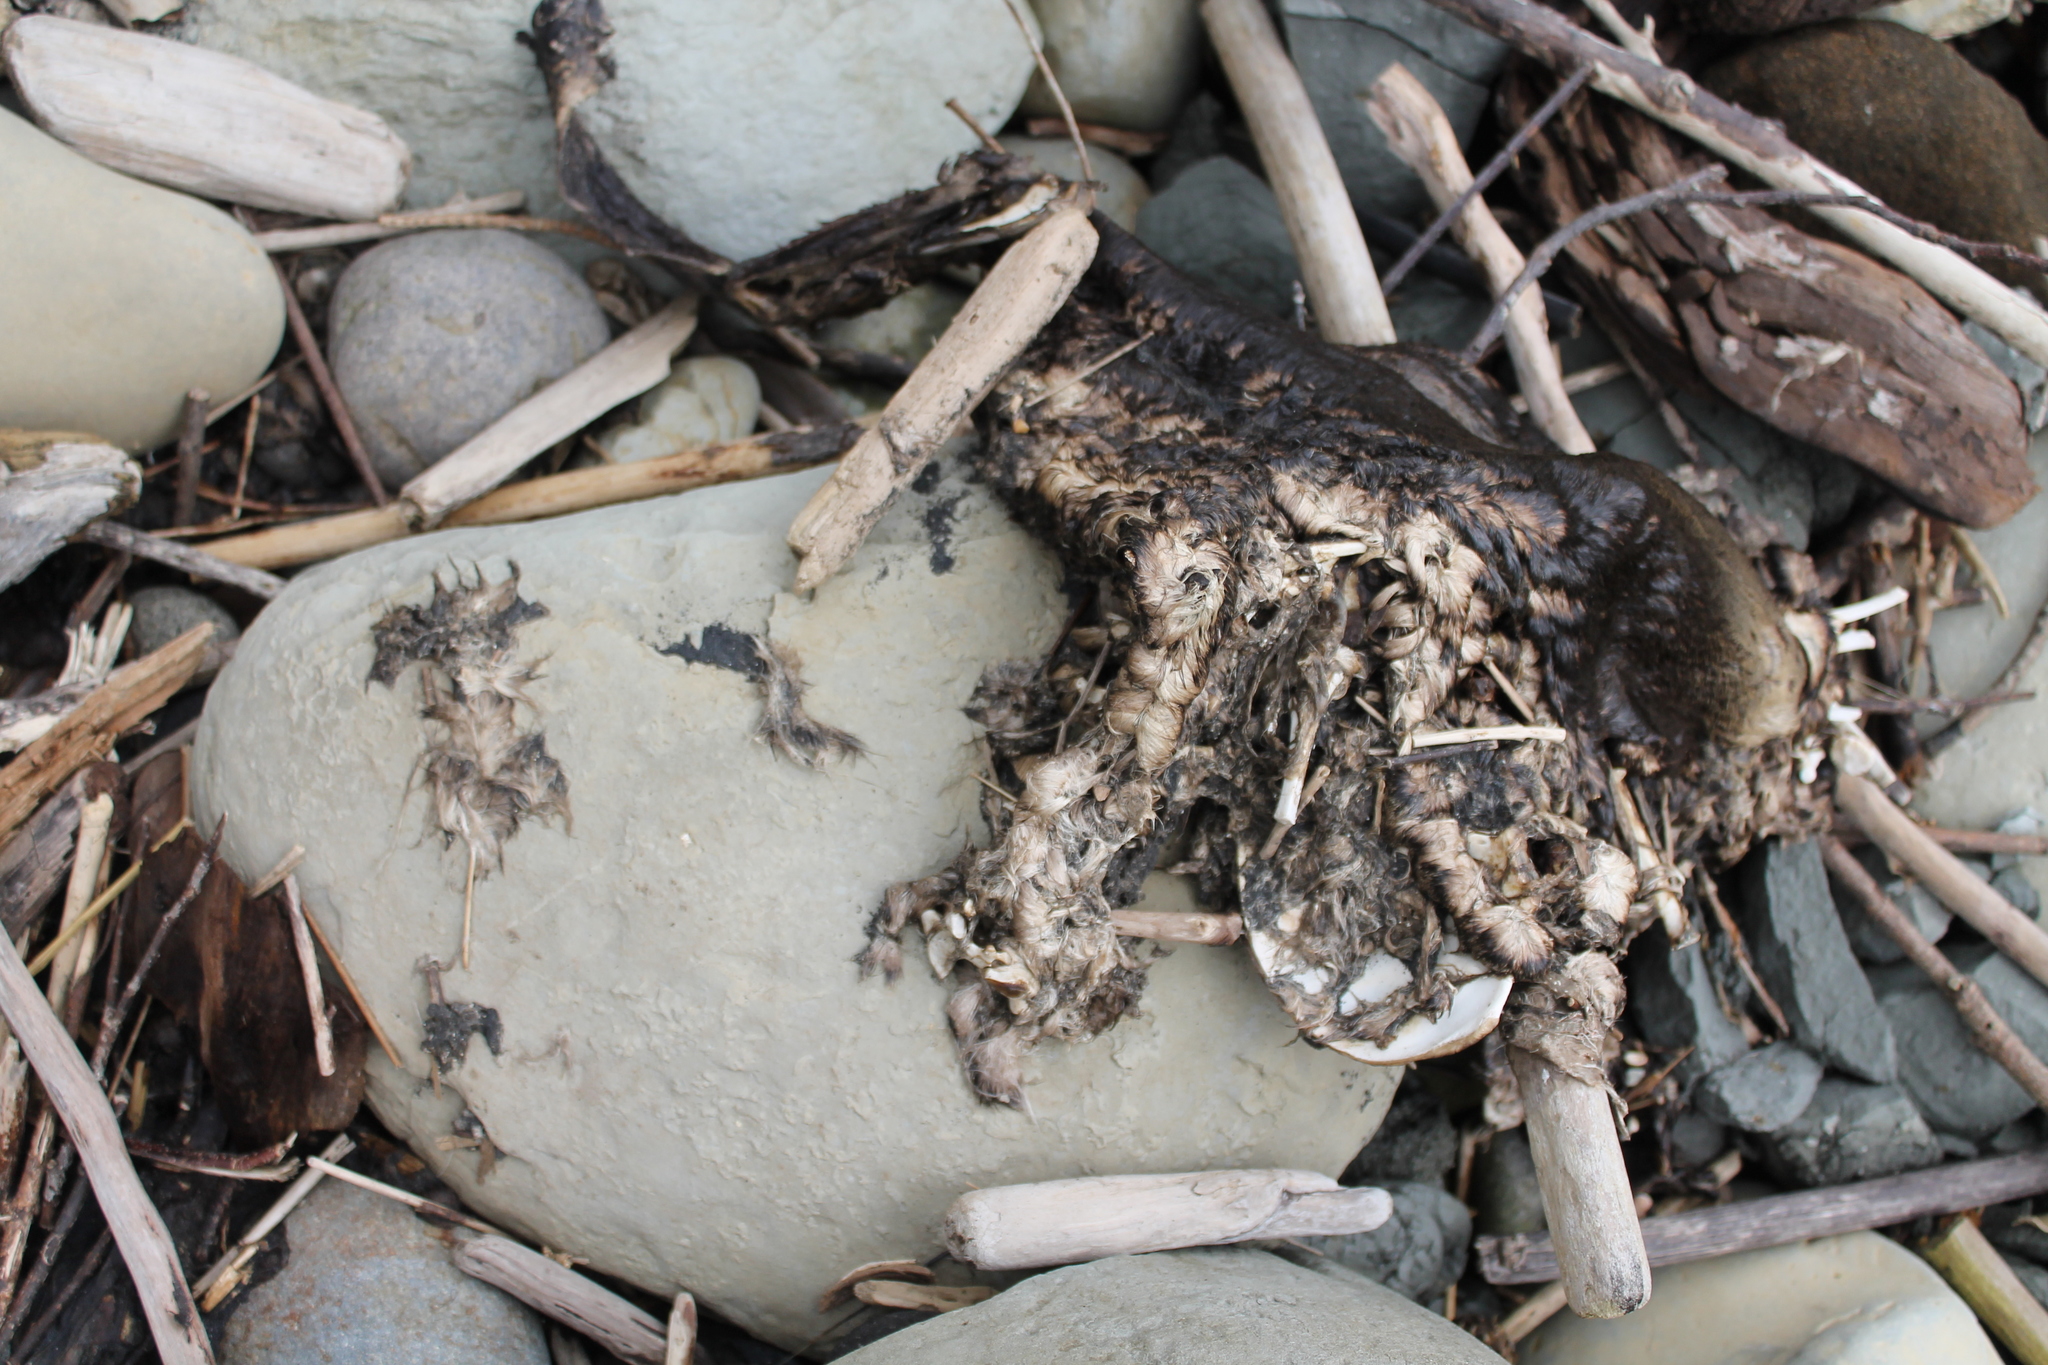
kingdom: Animalia
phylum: Chordata
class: Mammalia
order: Carnivora
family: Otariidae
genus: Arctocephalus
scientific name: Arctocephalus forsteri
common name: New zealand fur seal
